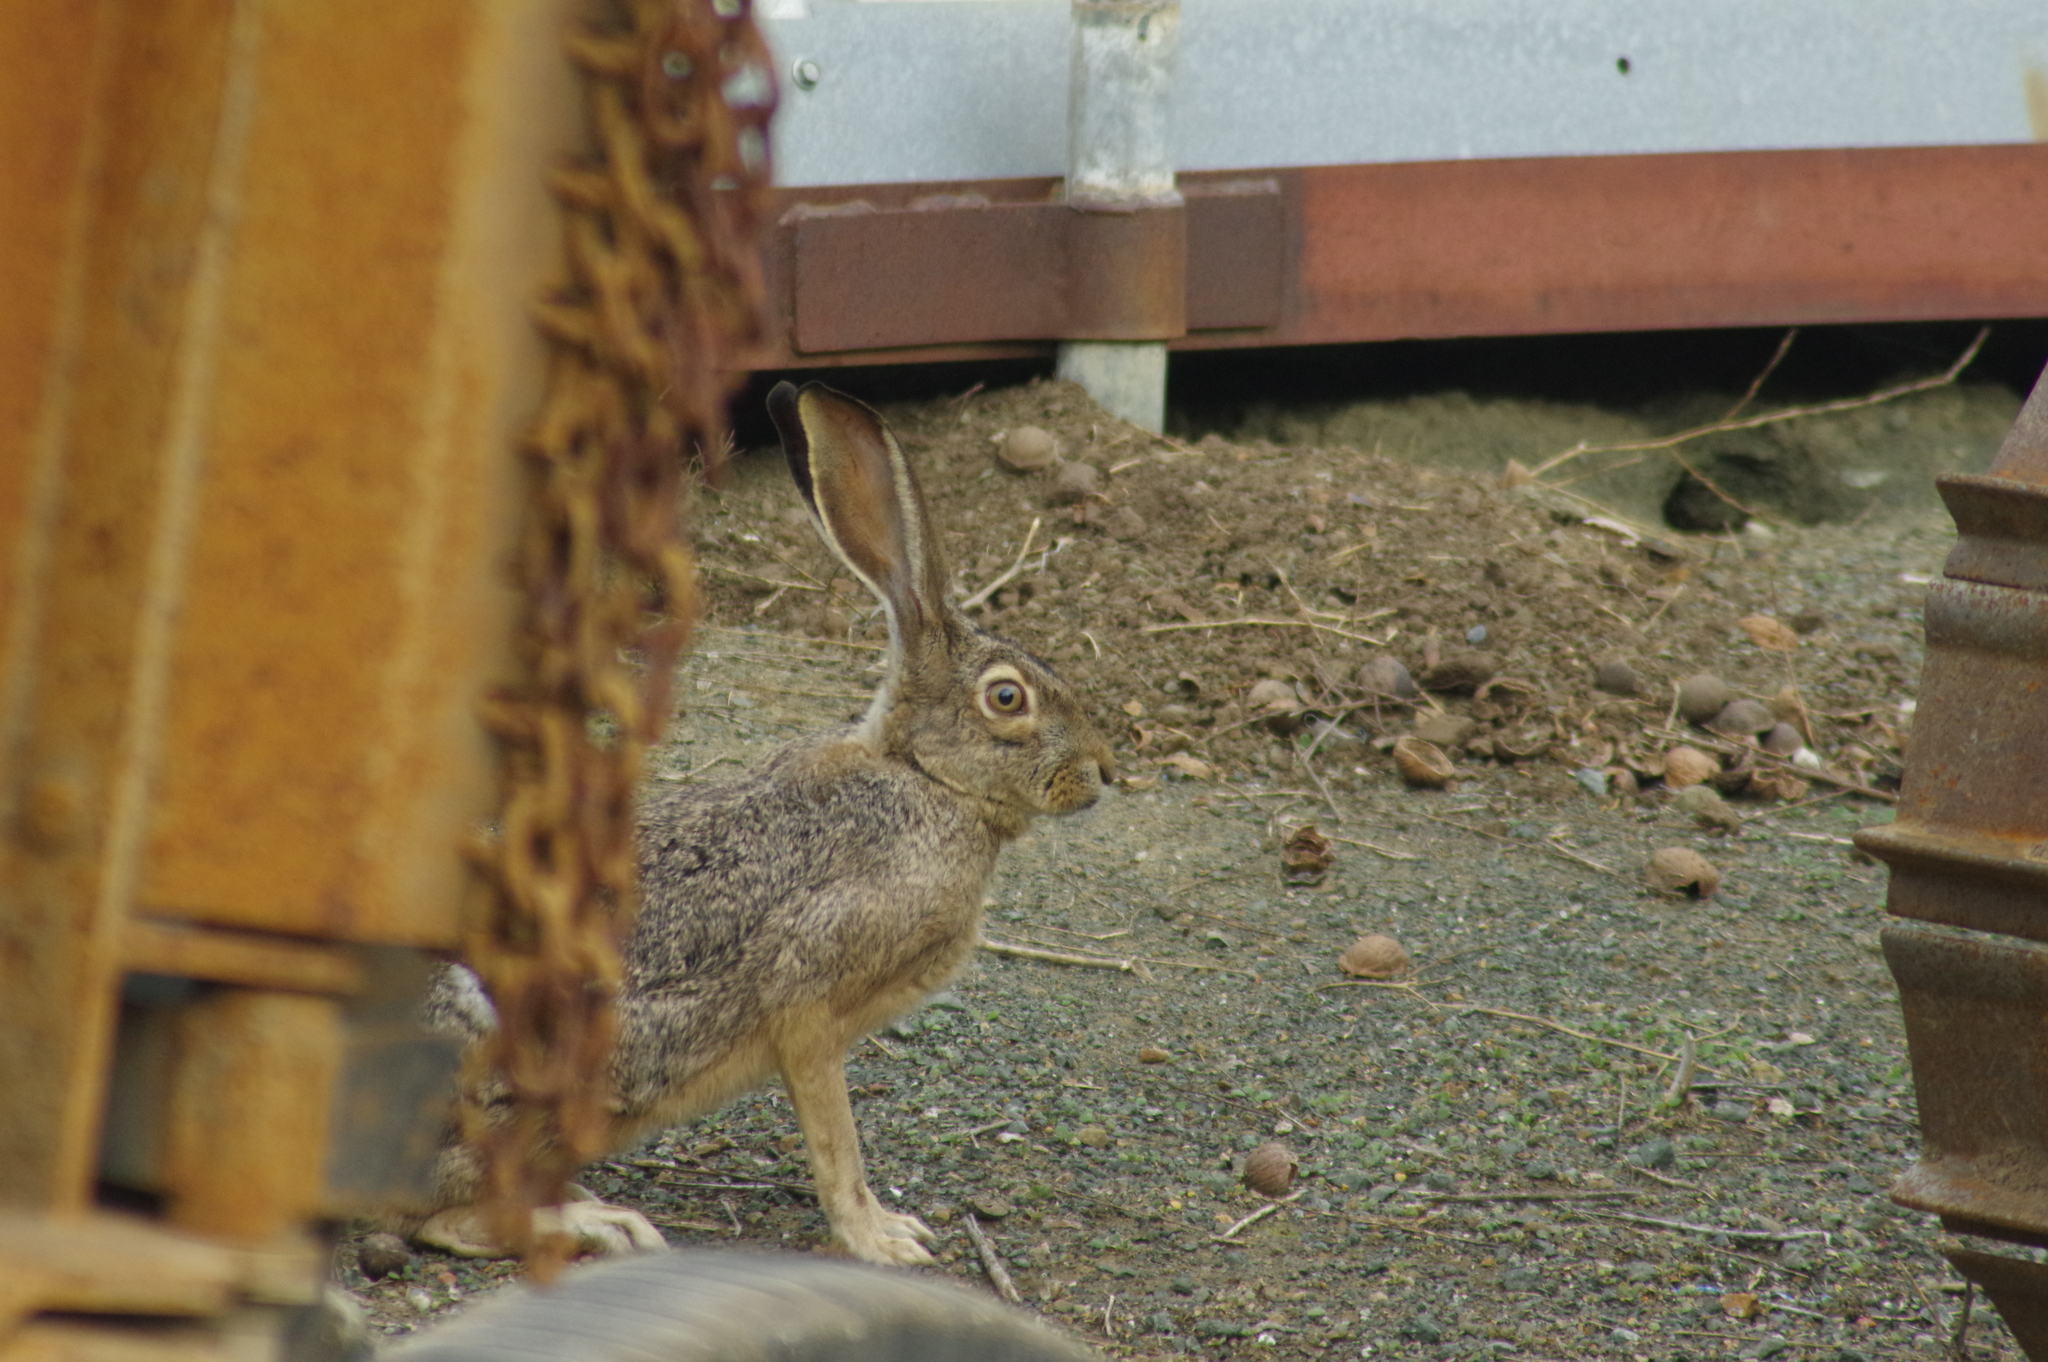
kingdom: Animalia
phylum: Chordata
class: Mammalia
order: Lagomorpha
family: Leporidae
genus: Lepus
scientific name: Lepus californicus
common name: Black-tailed jackrabbit
